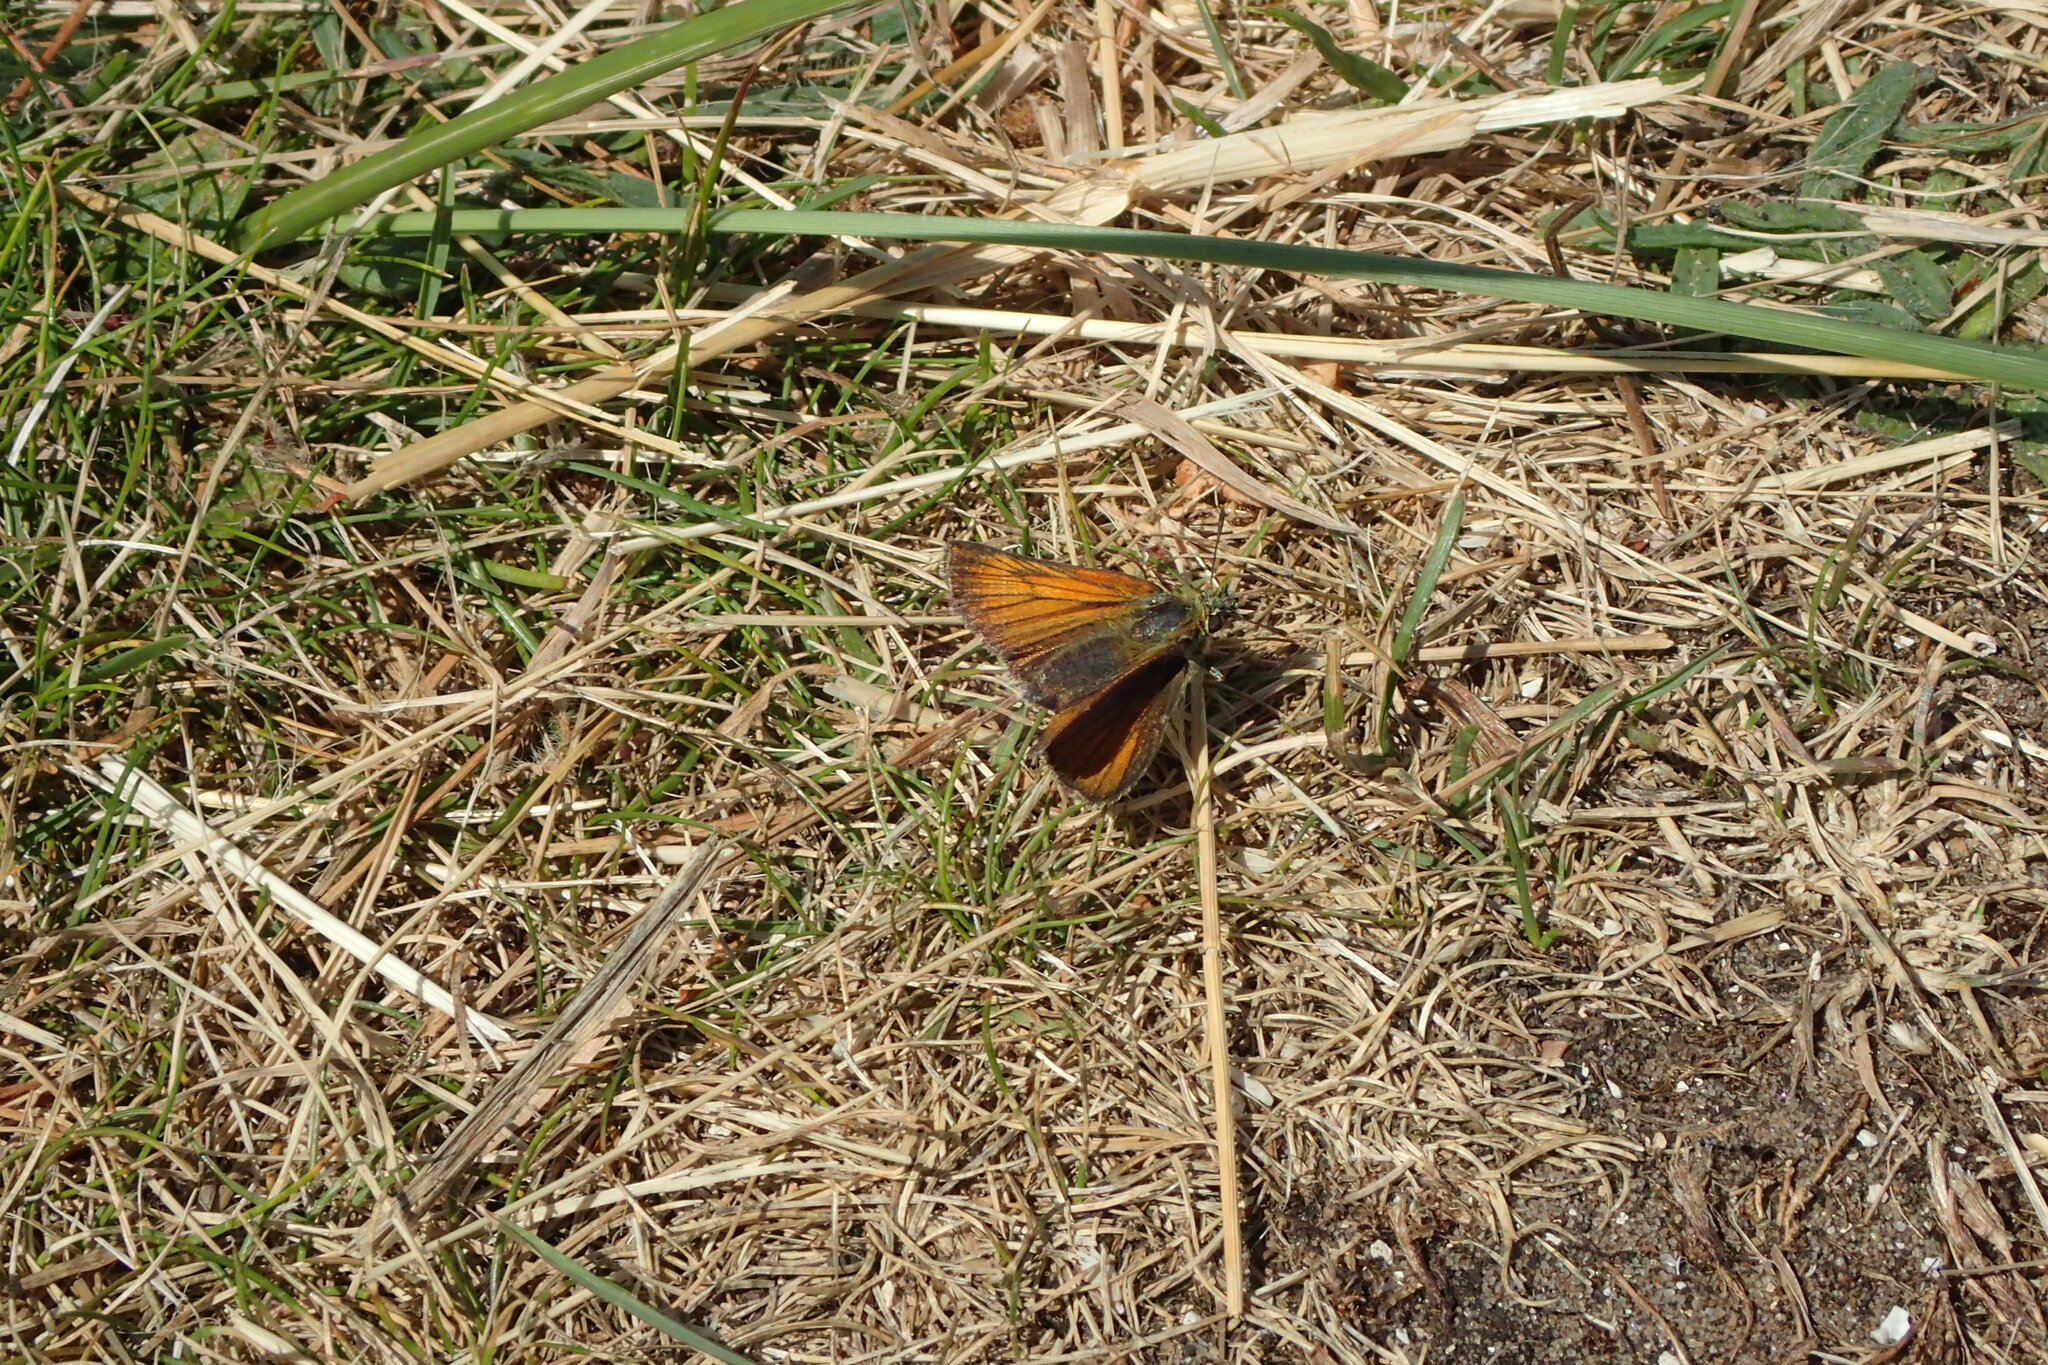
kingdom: Animalia
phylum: Arthropoda
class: Insecta
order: Lepidoptera
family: Hesperiidae
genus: Thymelicus
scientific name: Thymelicus sylvestris
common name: Small skipper
